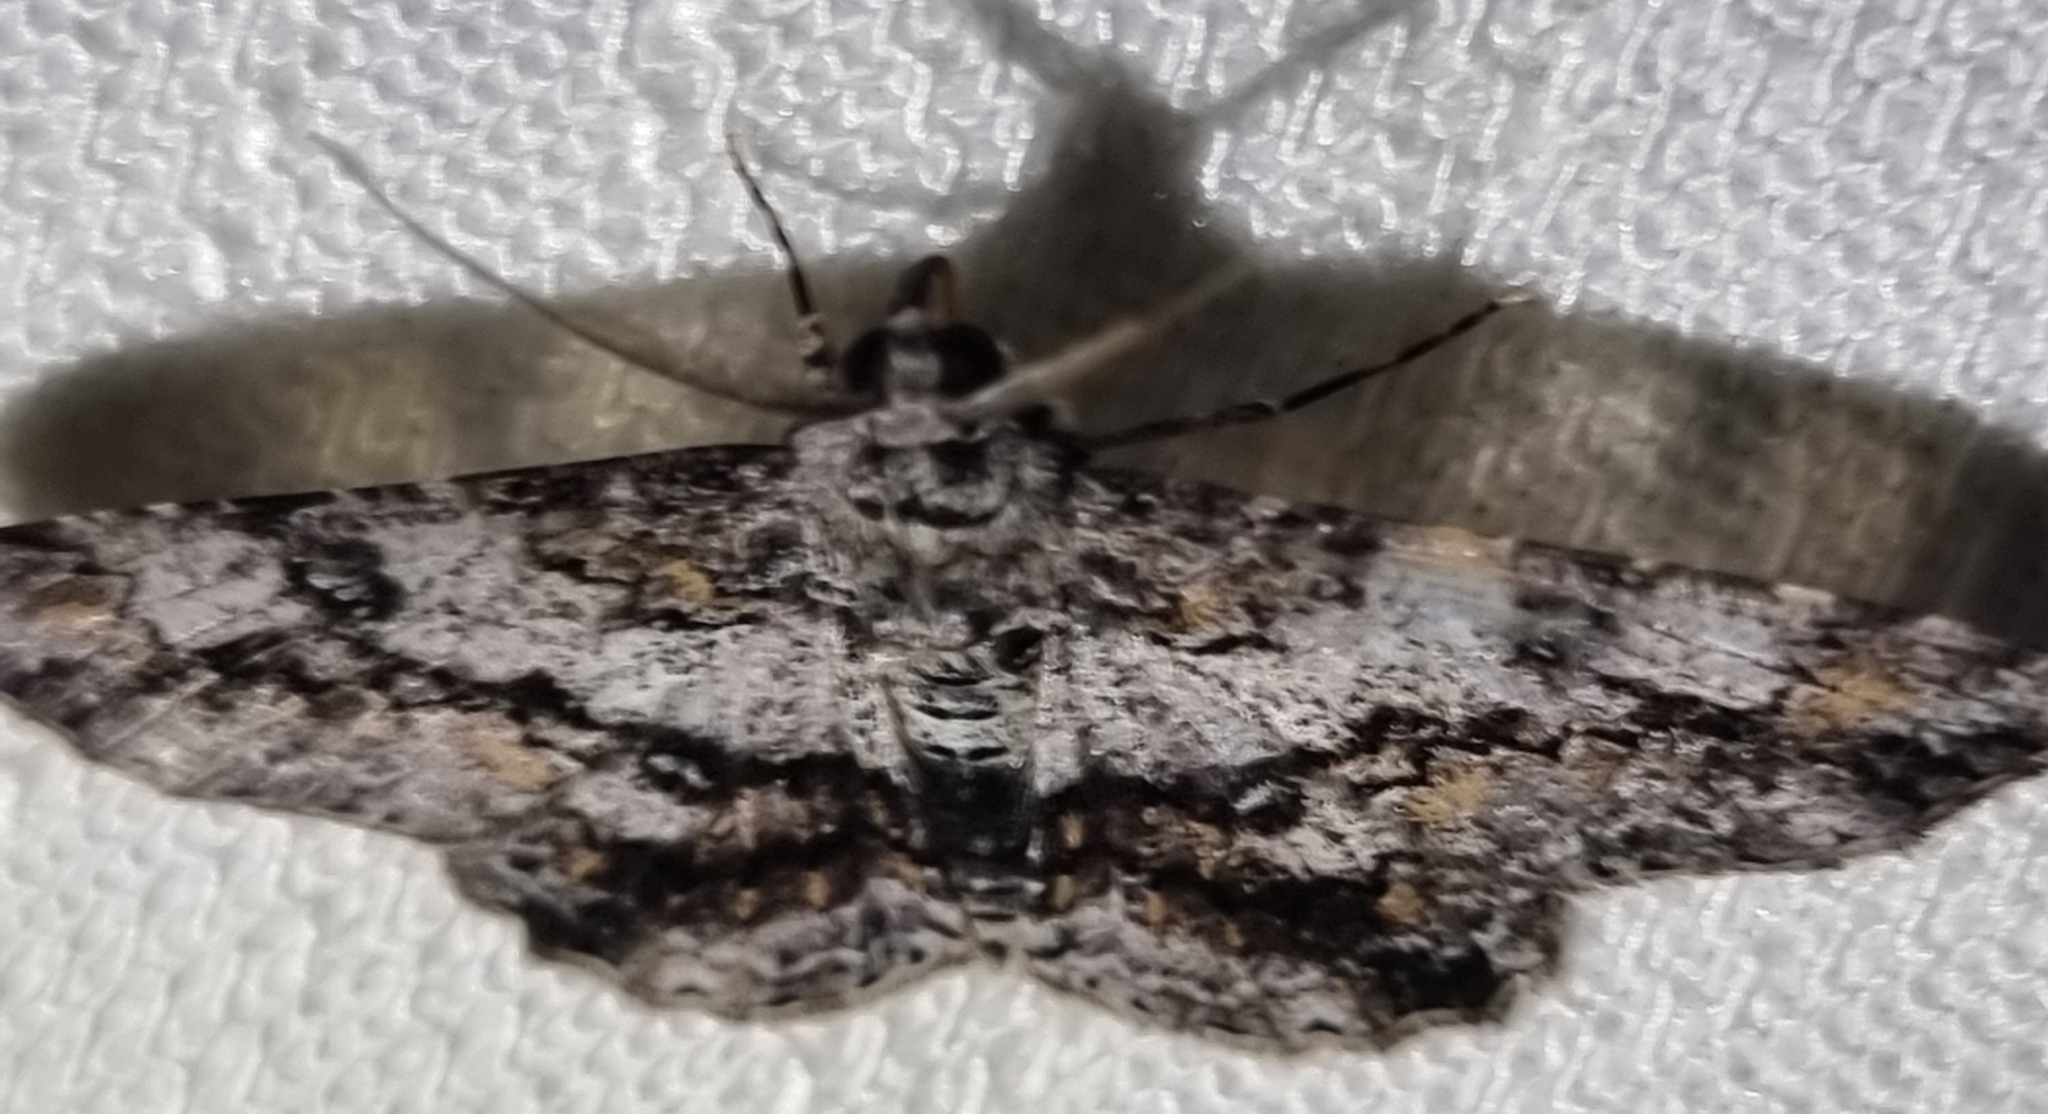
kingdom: Animalia
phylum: Arthropoda
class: Insecta
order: Lepidoptera
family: Geometridae
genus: Cleora
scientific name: Cleora injectaria
